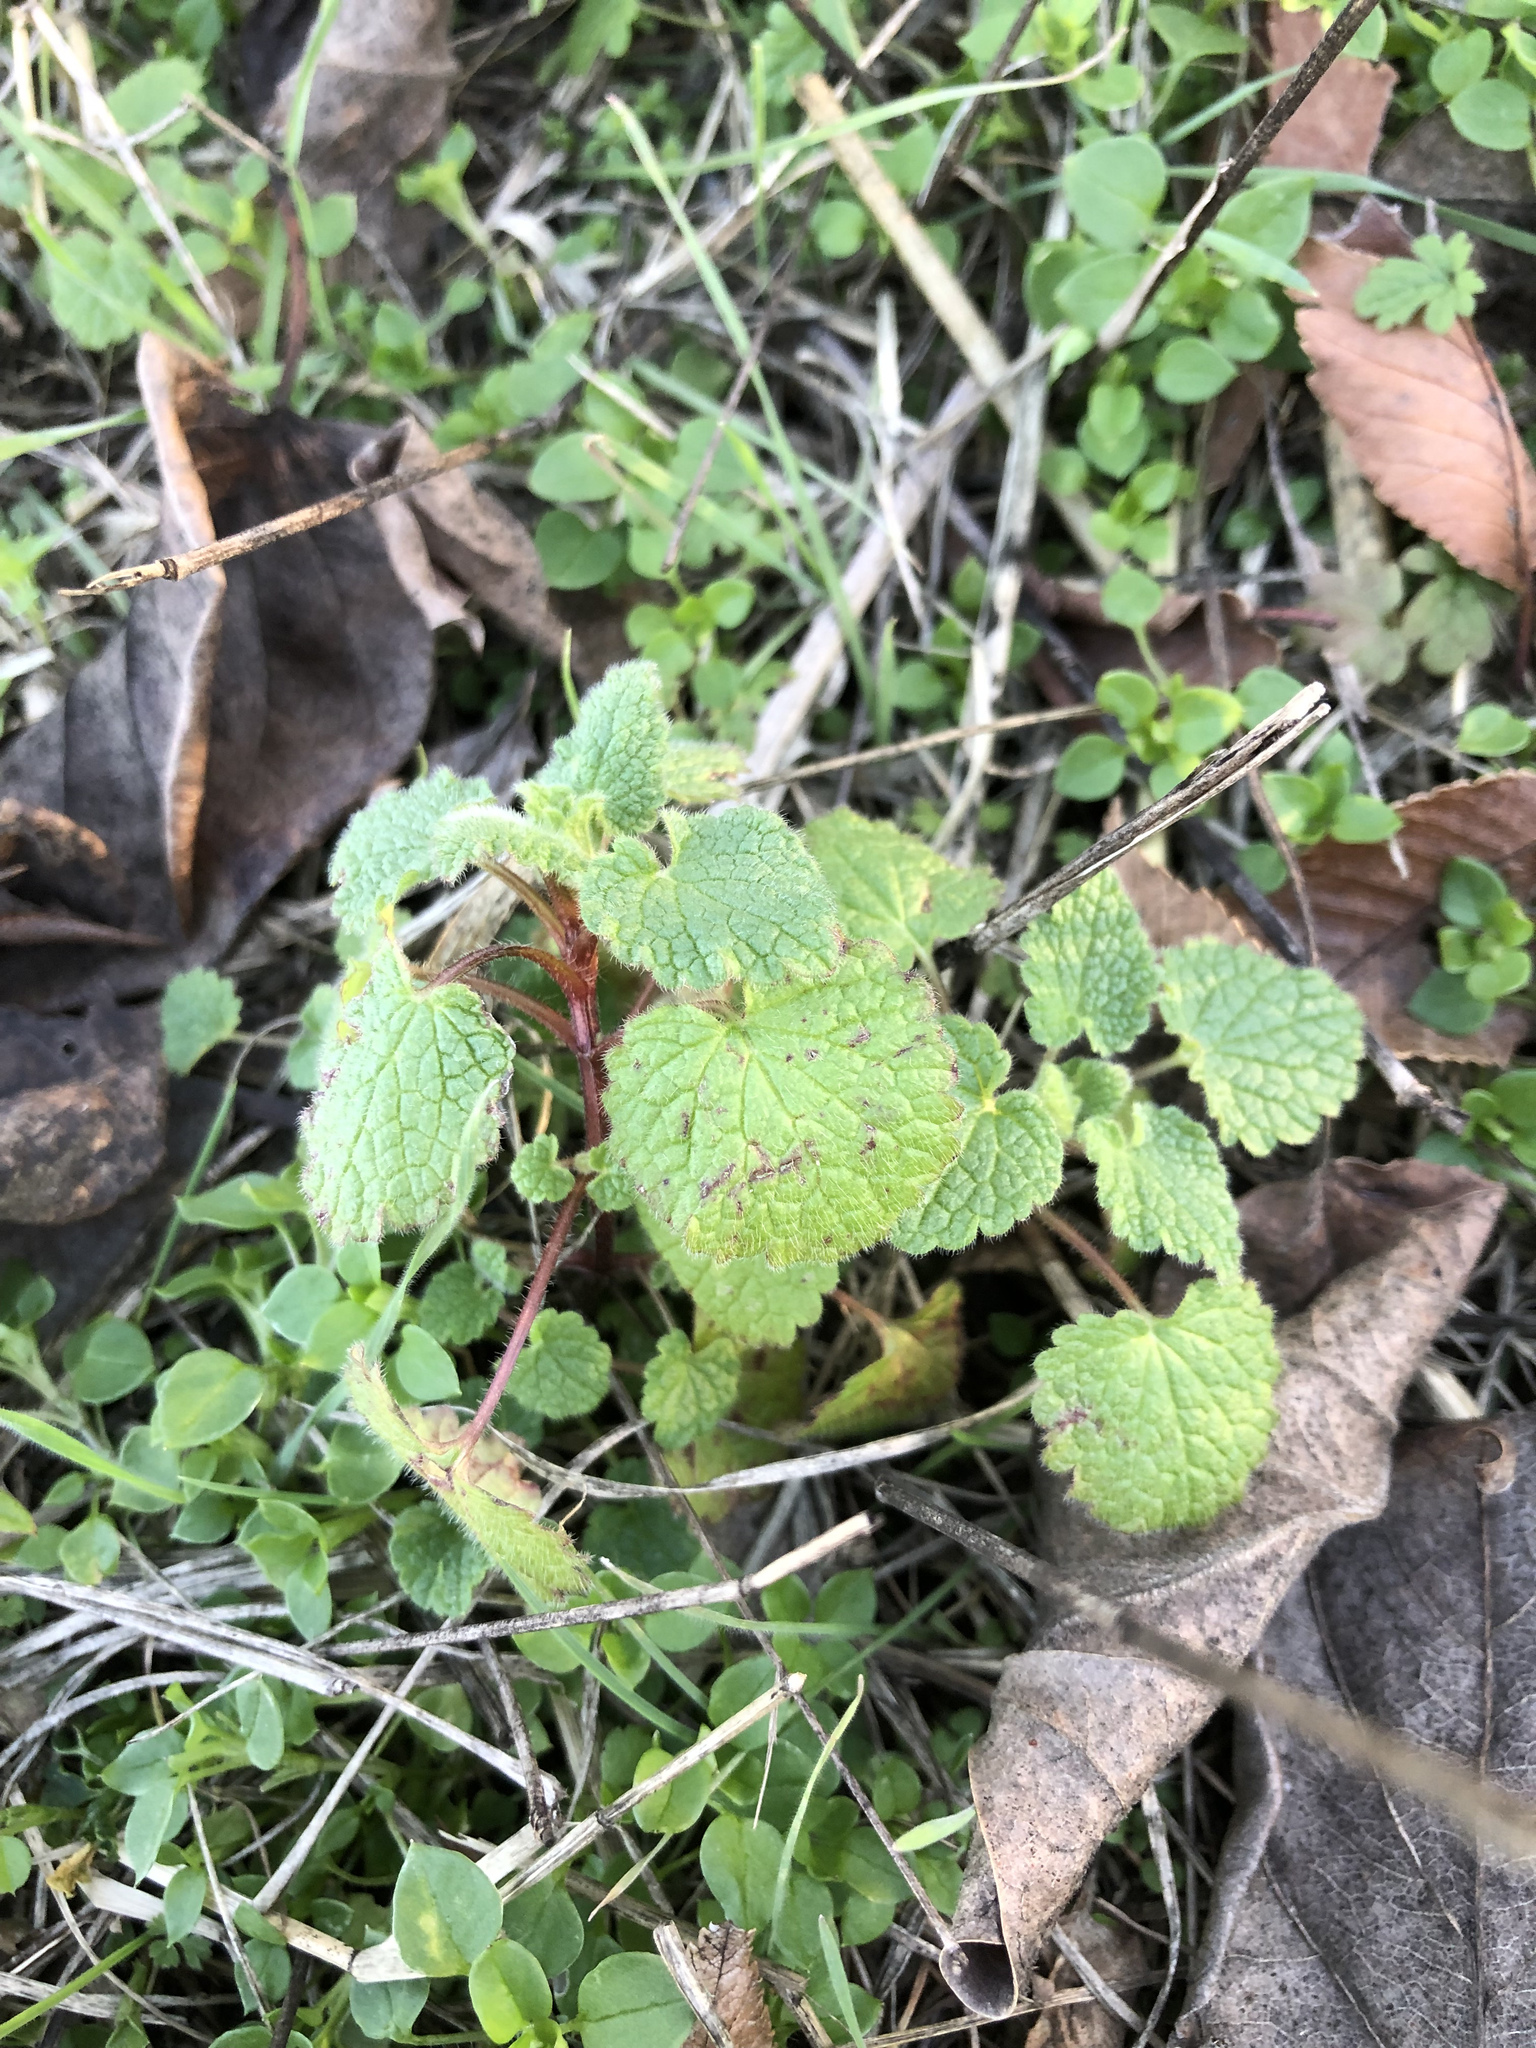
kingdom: Plantae
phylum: Tracheophyta
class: Magnoliopsida
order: Lamiales
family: Lamiaceae
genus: Lamium
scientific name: Lamium purpureum
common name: Red dead-nettle
